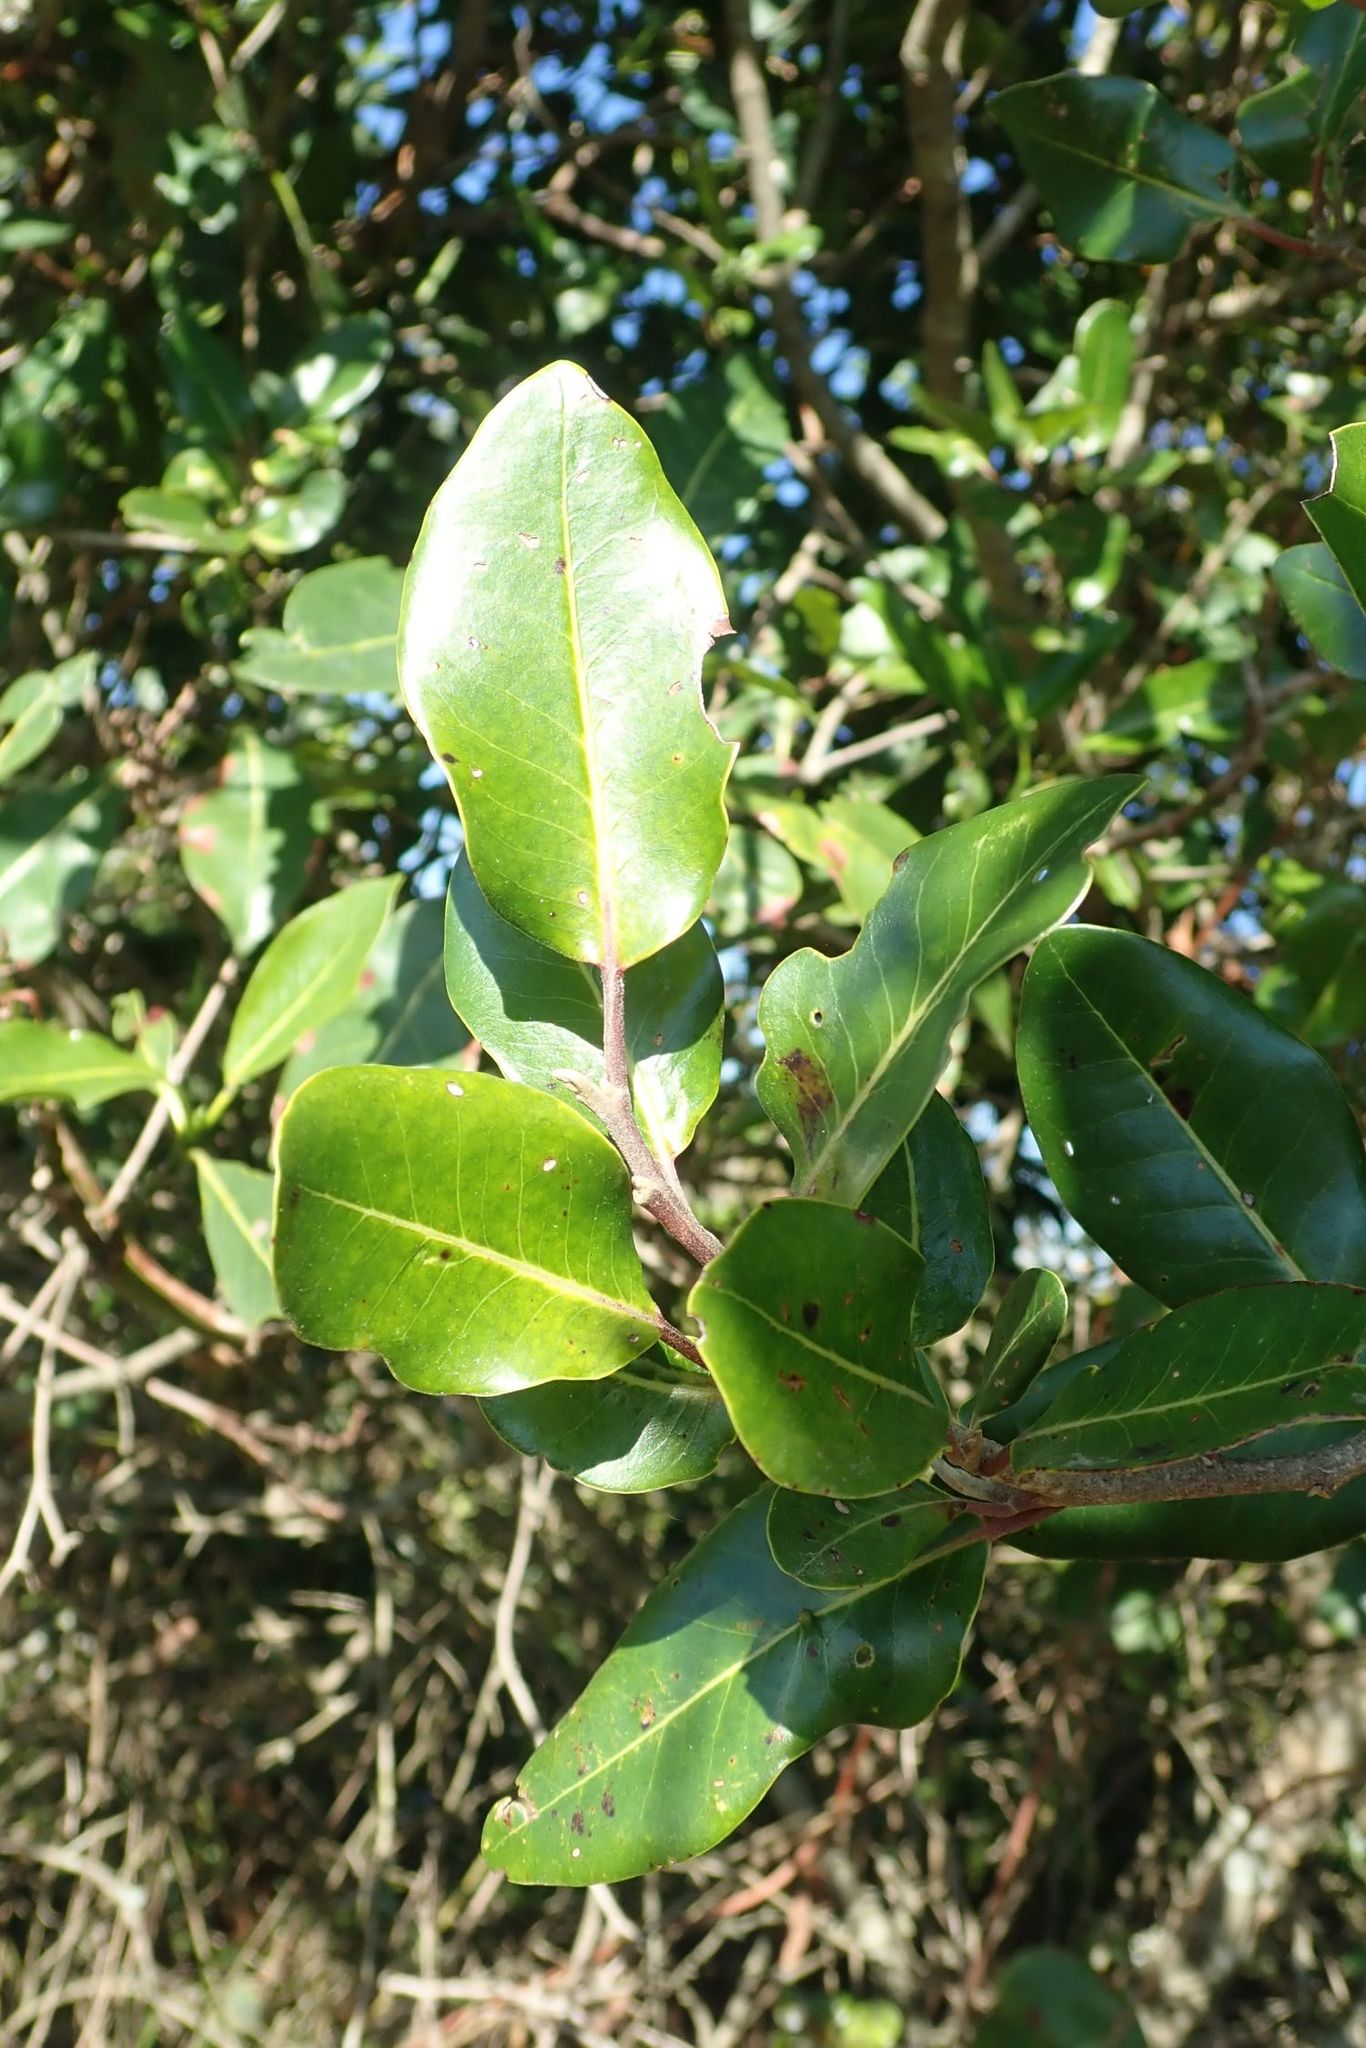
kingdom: Plantae
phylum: Tracheophyta
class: Magnoliopsida
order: Metteniusales
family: Metteniusaceae
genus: Apodytes
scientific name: Apodytes dimidiata
